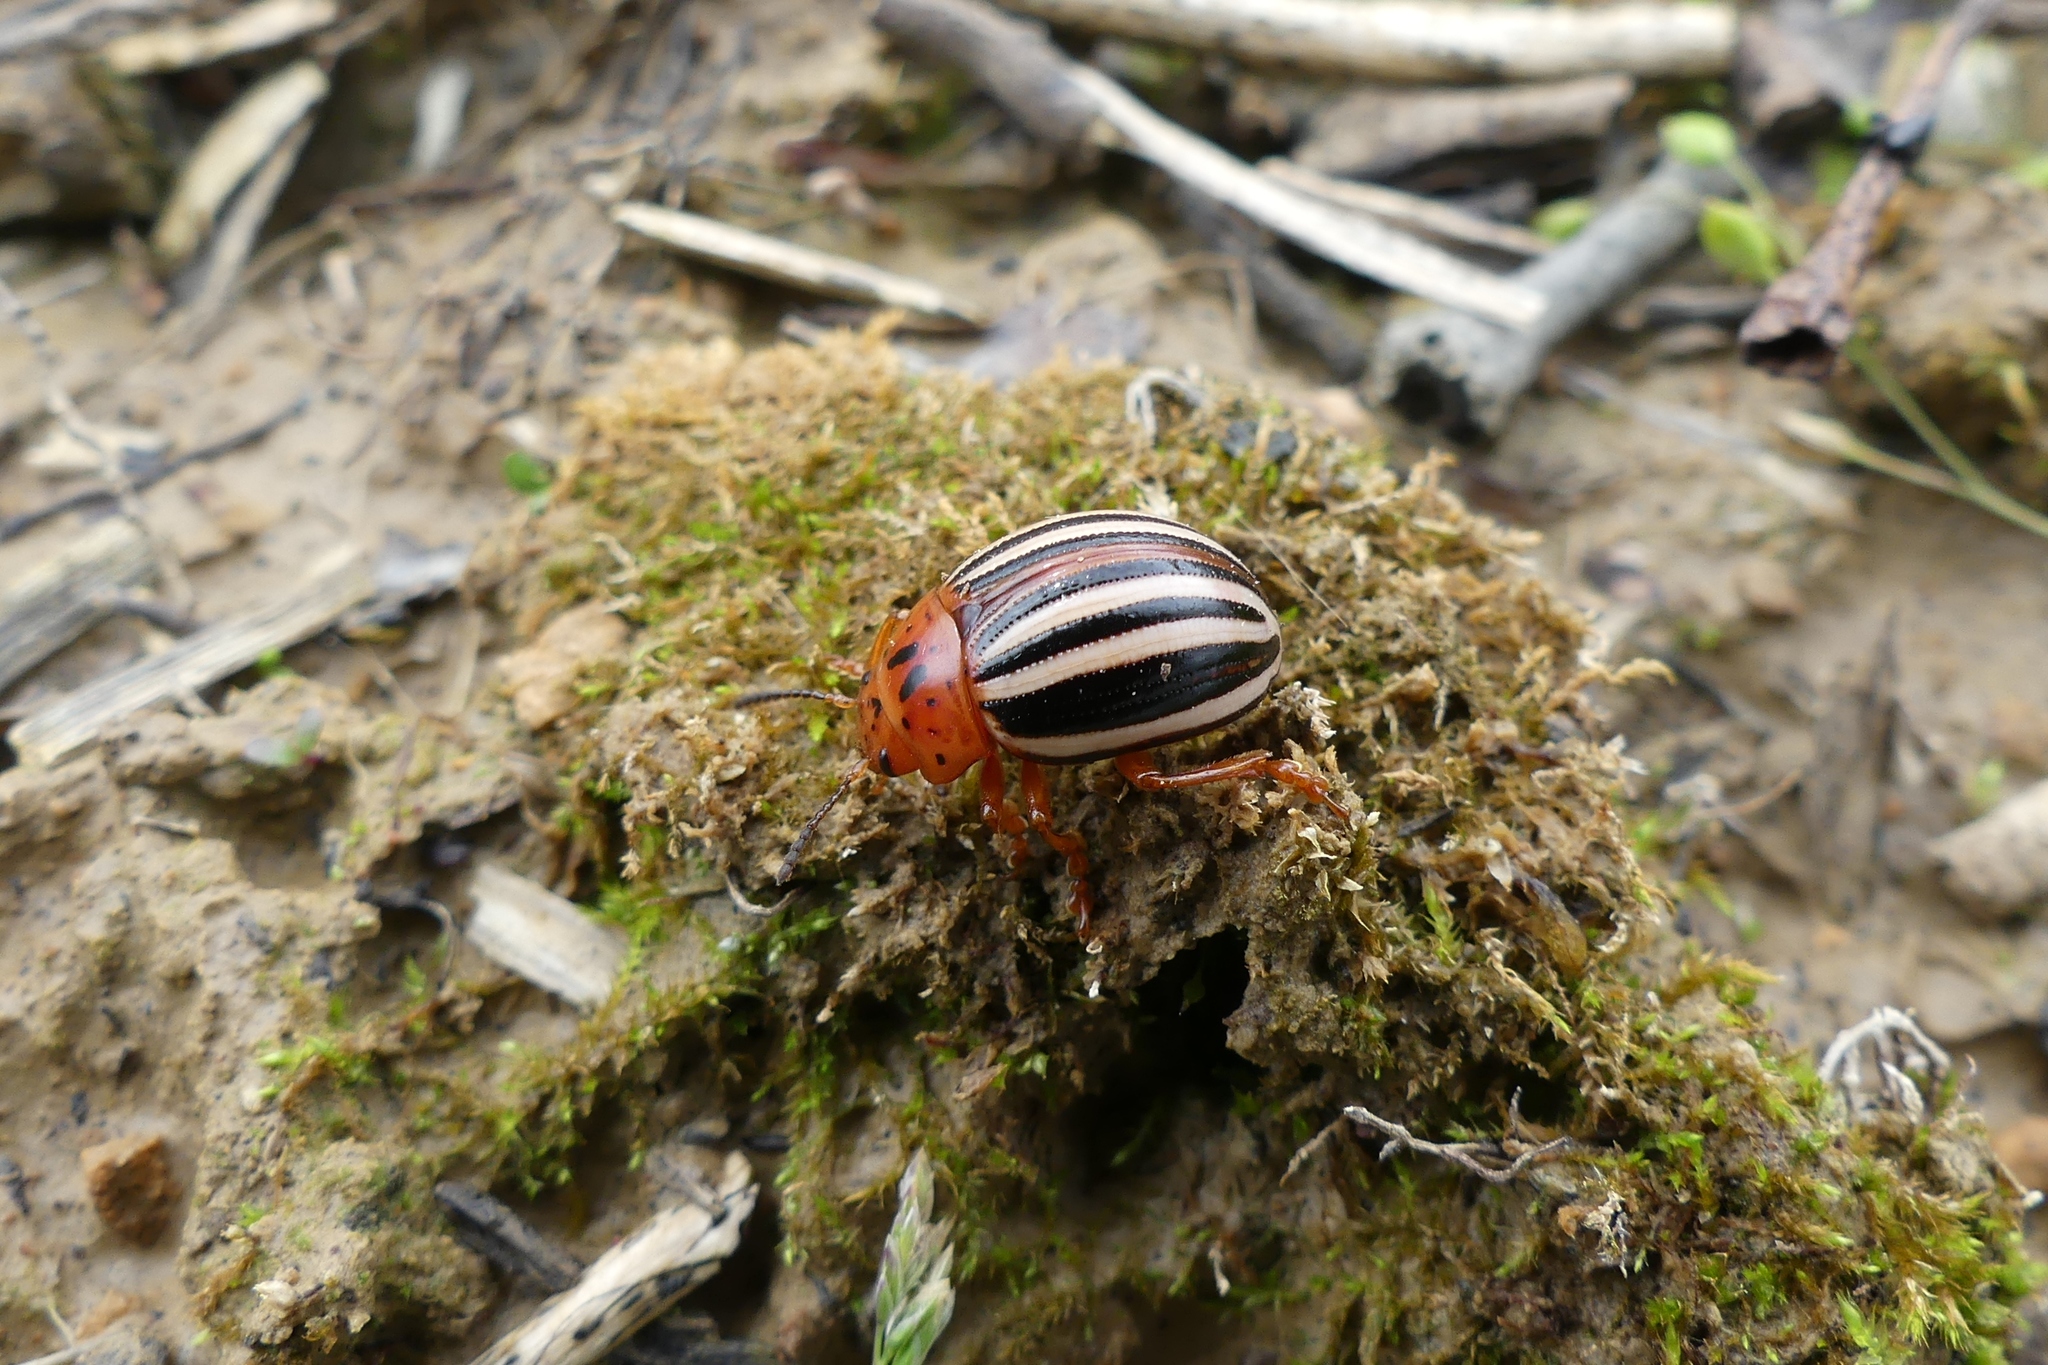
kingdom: Animalia
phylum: Arthropoda
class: Insecta
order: Coleoptera
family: Chrysomelidae
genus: Leptinotarsa
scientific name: Leptinotarsa juncta
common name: False potato beetle
